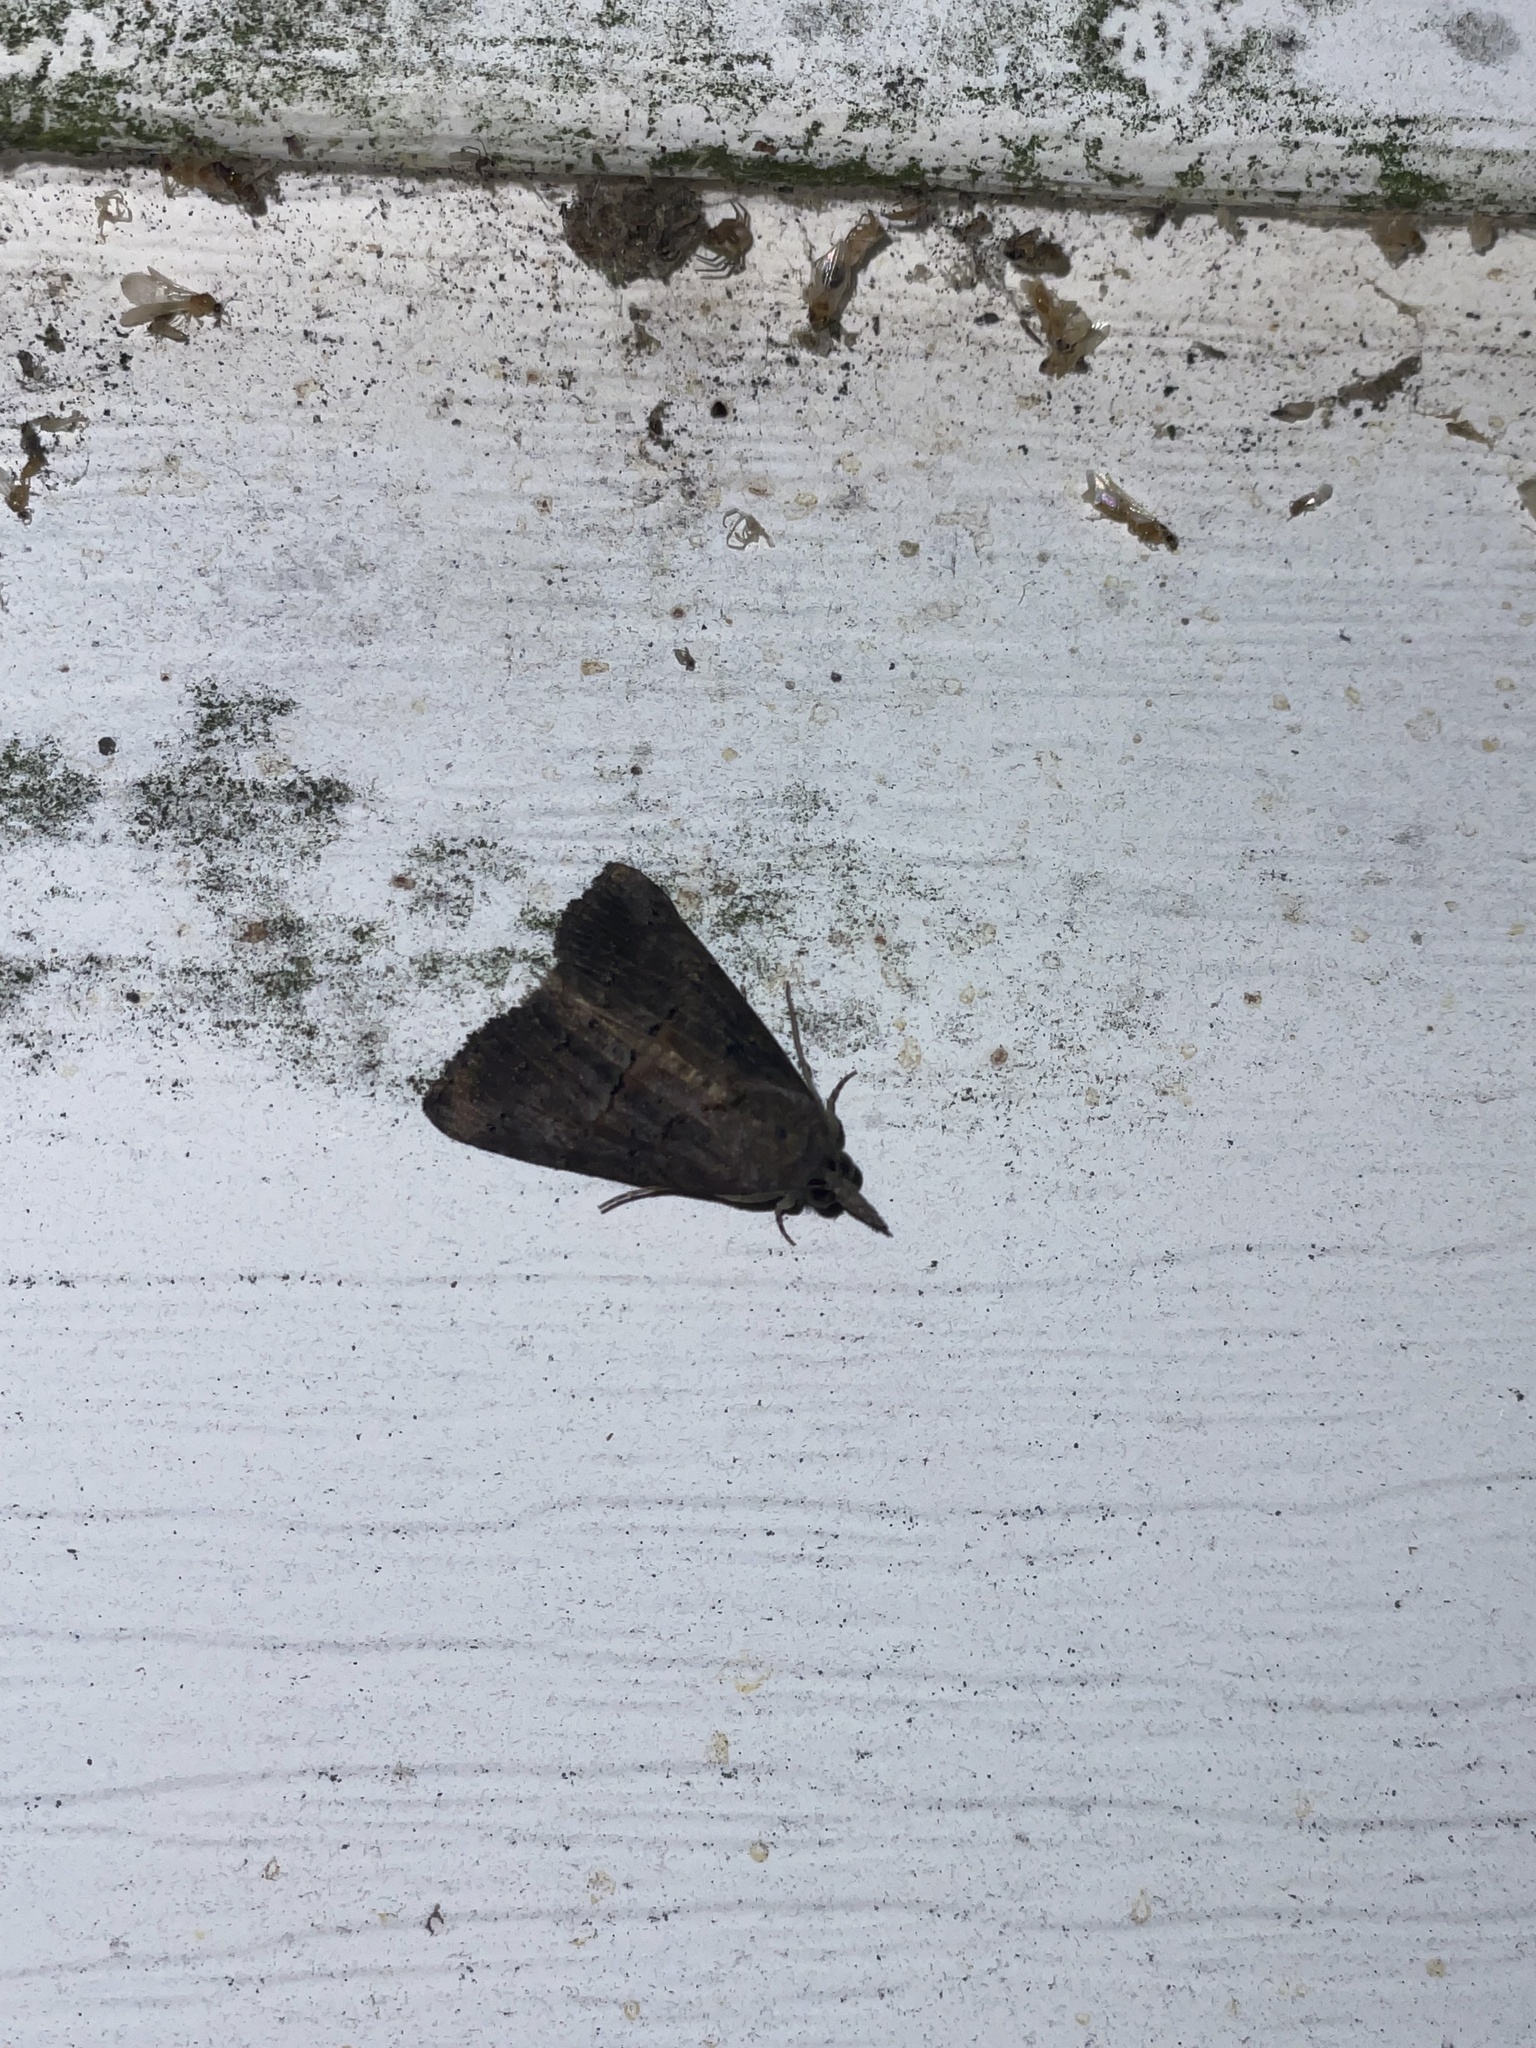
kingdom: Animalia
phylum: Arthropoda
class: Insecta
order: Lepidoptera
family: Erebidae
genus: Hypena
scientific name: Hypena scabra
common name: Green cloverworm
